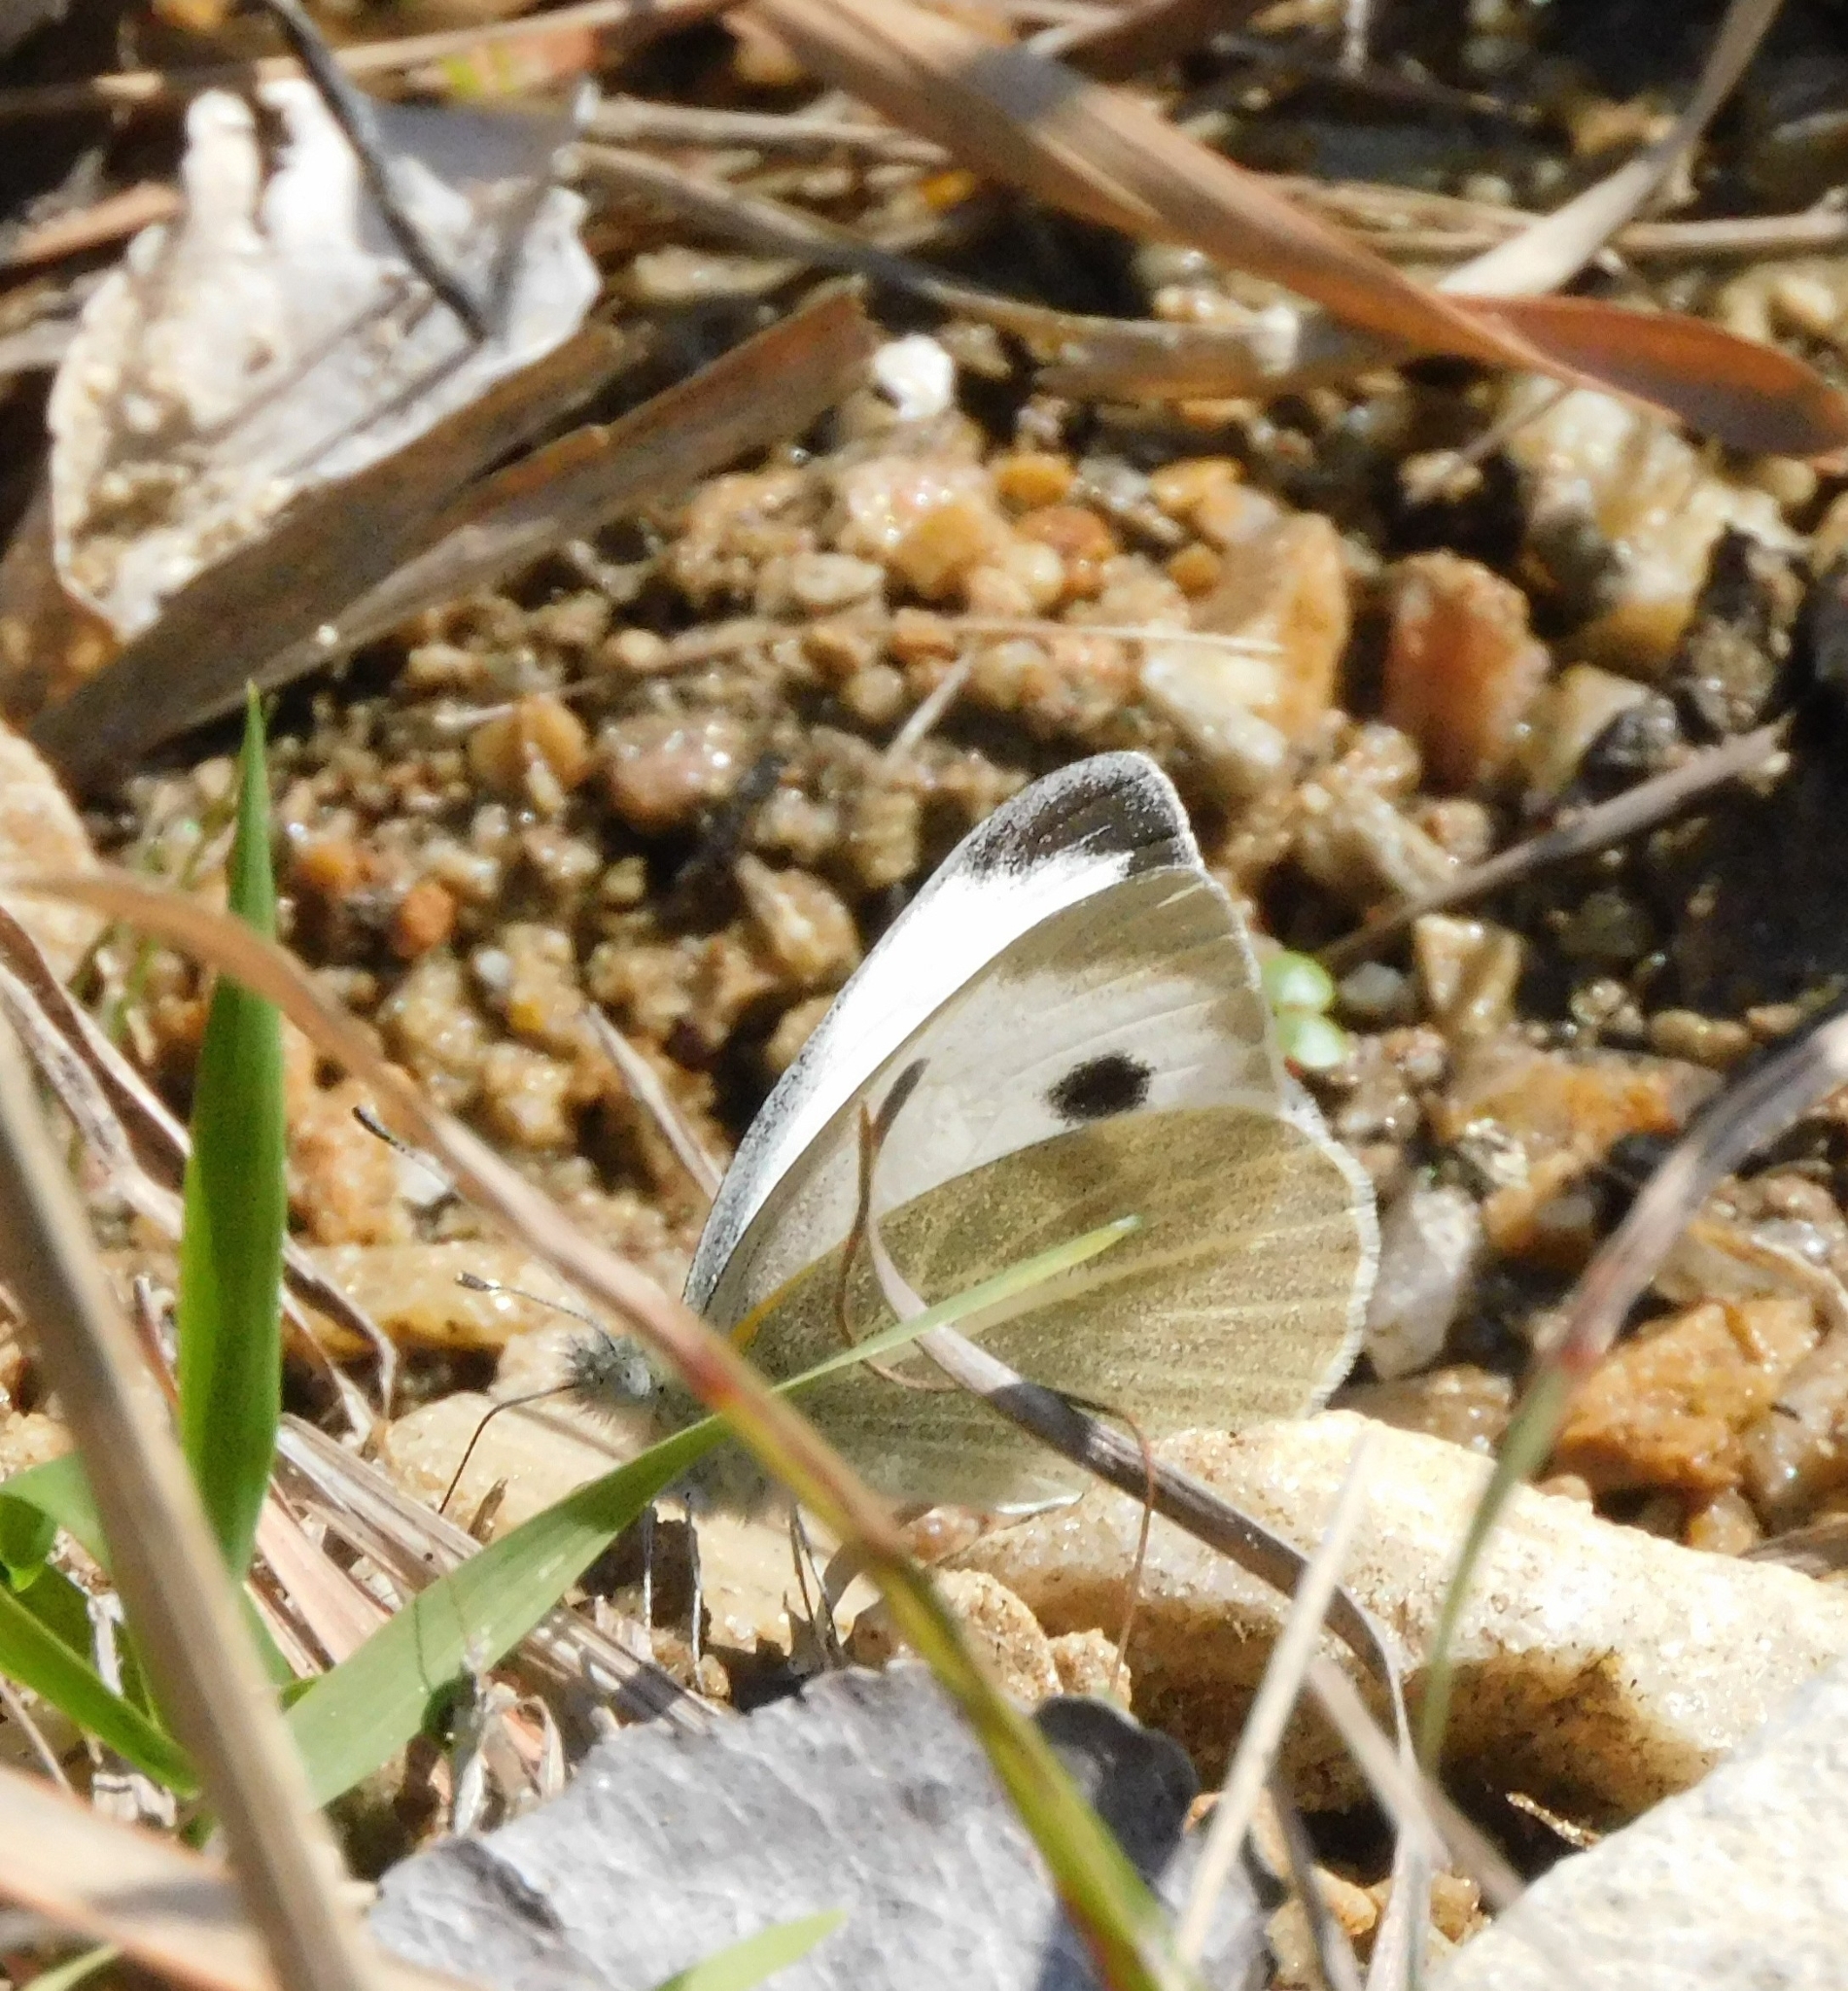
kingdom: Animalia
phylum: Arthropoda
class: Insecta
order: Lepidoptera
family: Pieridae
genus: Pieris
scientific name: Pieris canidia
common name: Indian cabbage white
